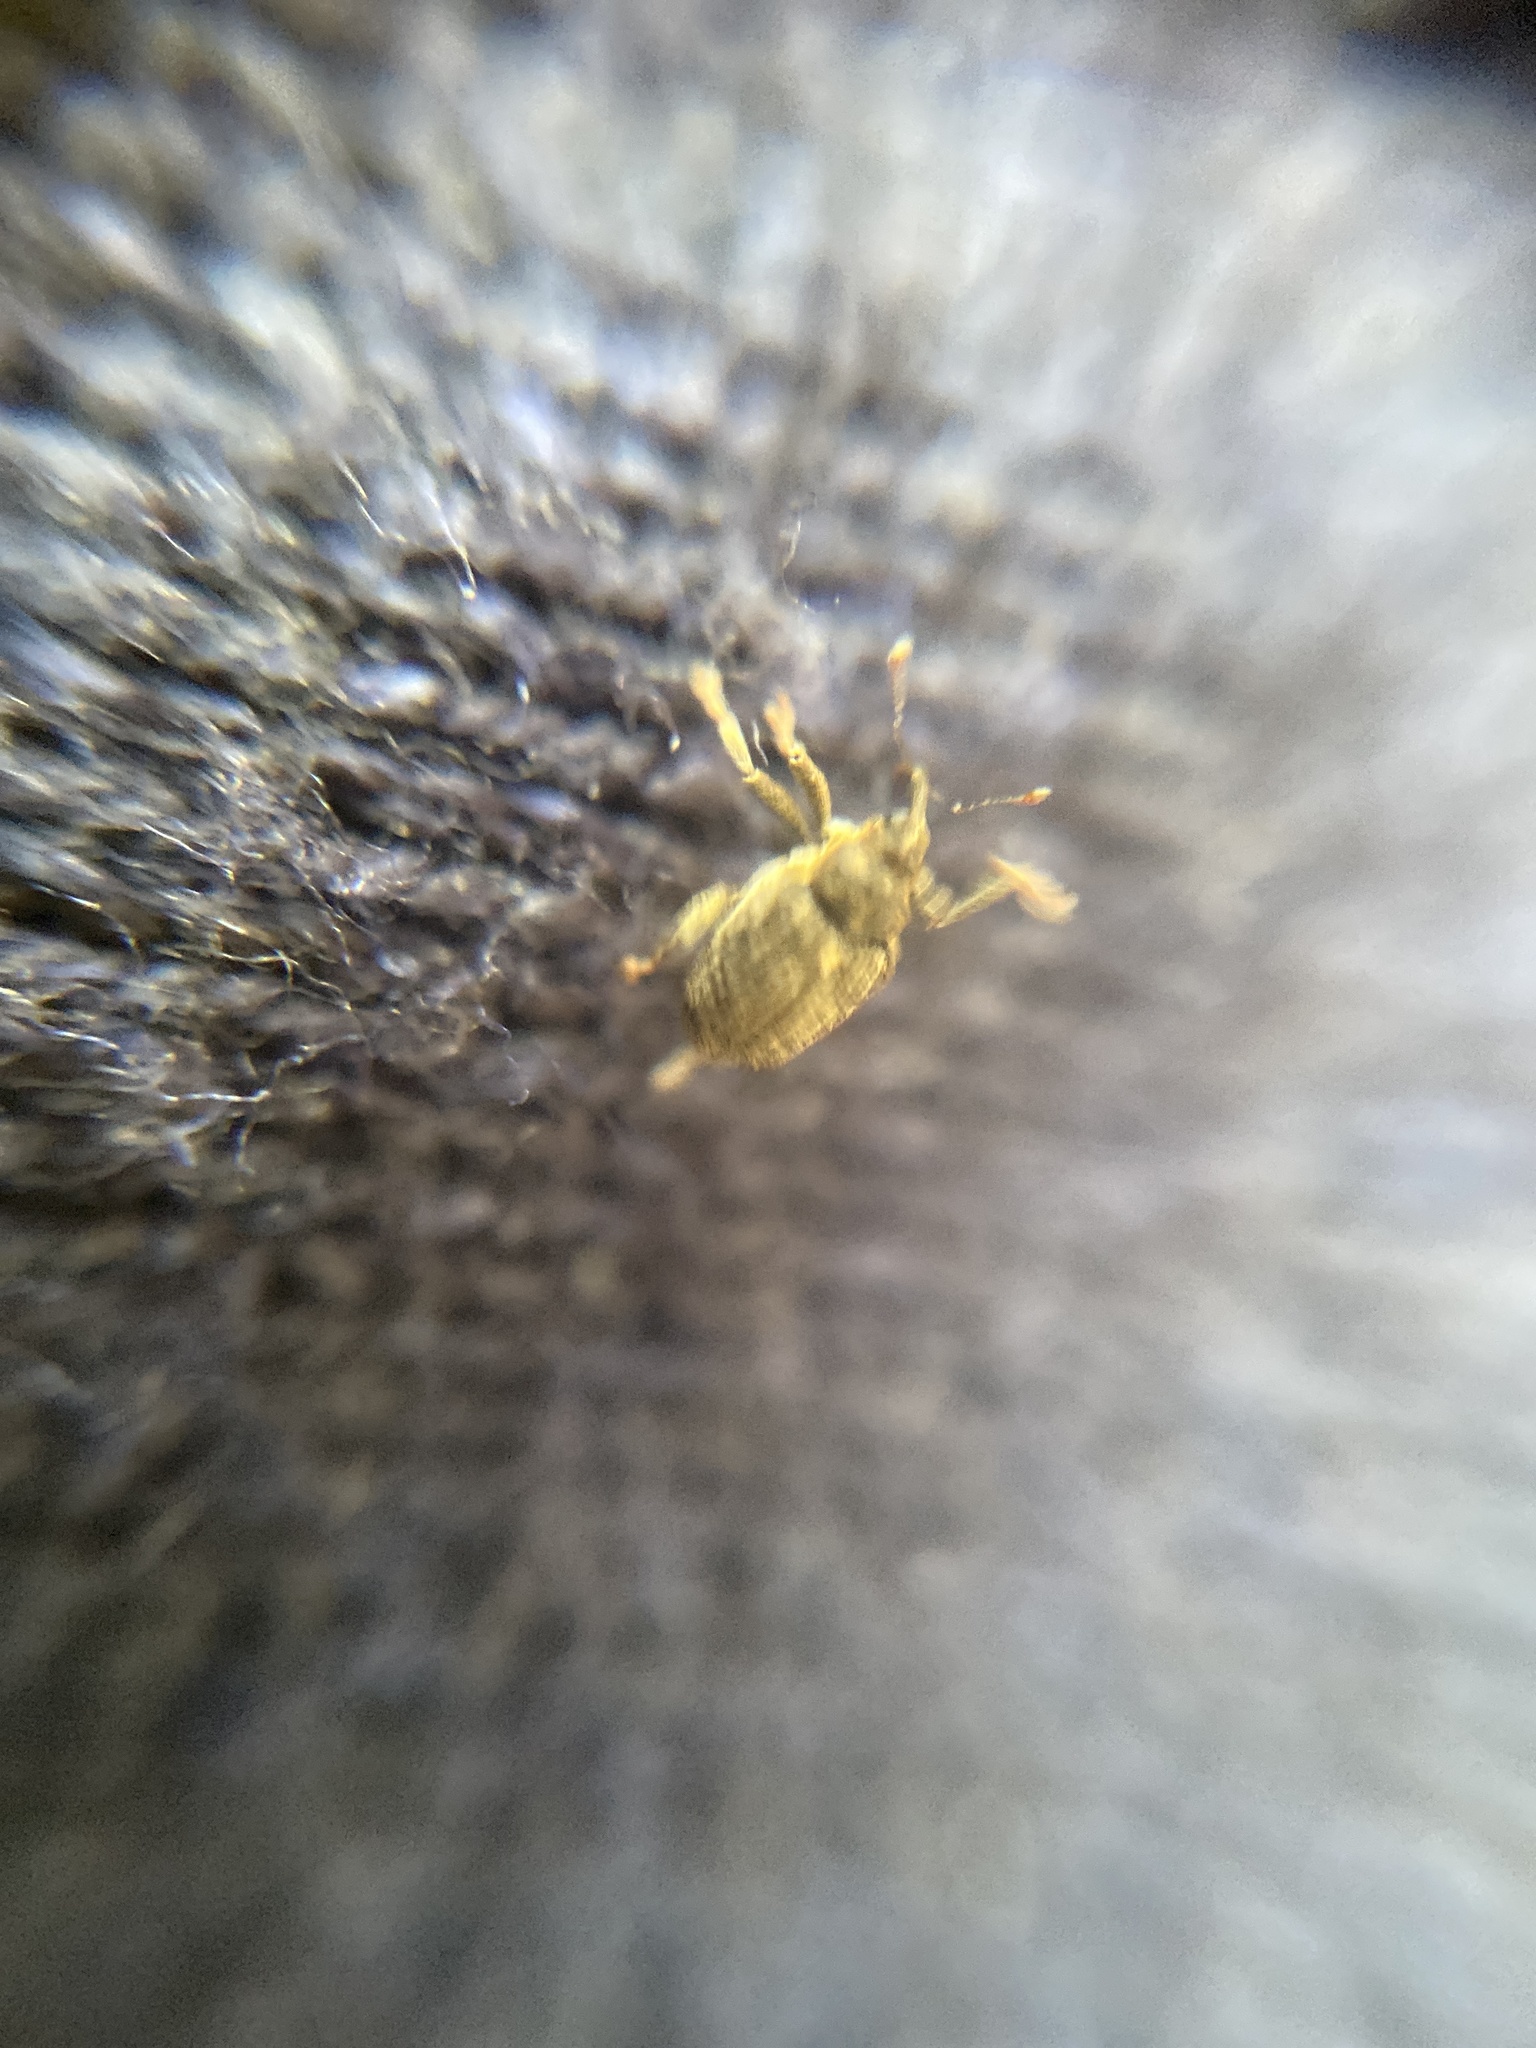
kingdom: Animalia
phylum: Arthropoda
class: Insecta
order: Coleoptera
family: Curculionidae
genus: Ceutorhynchus
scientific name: Ceutorhynchus pallidactylus
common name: Cabbage stem weavil
